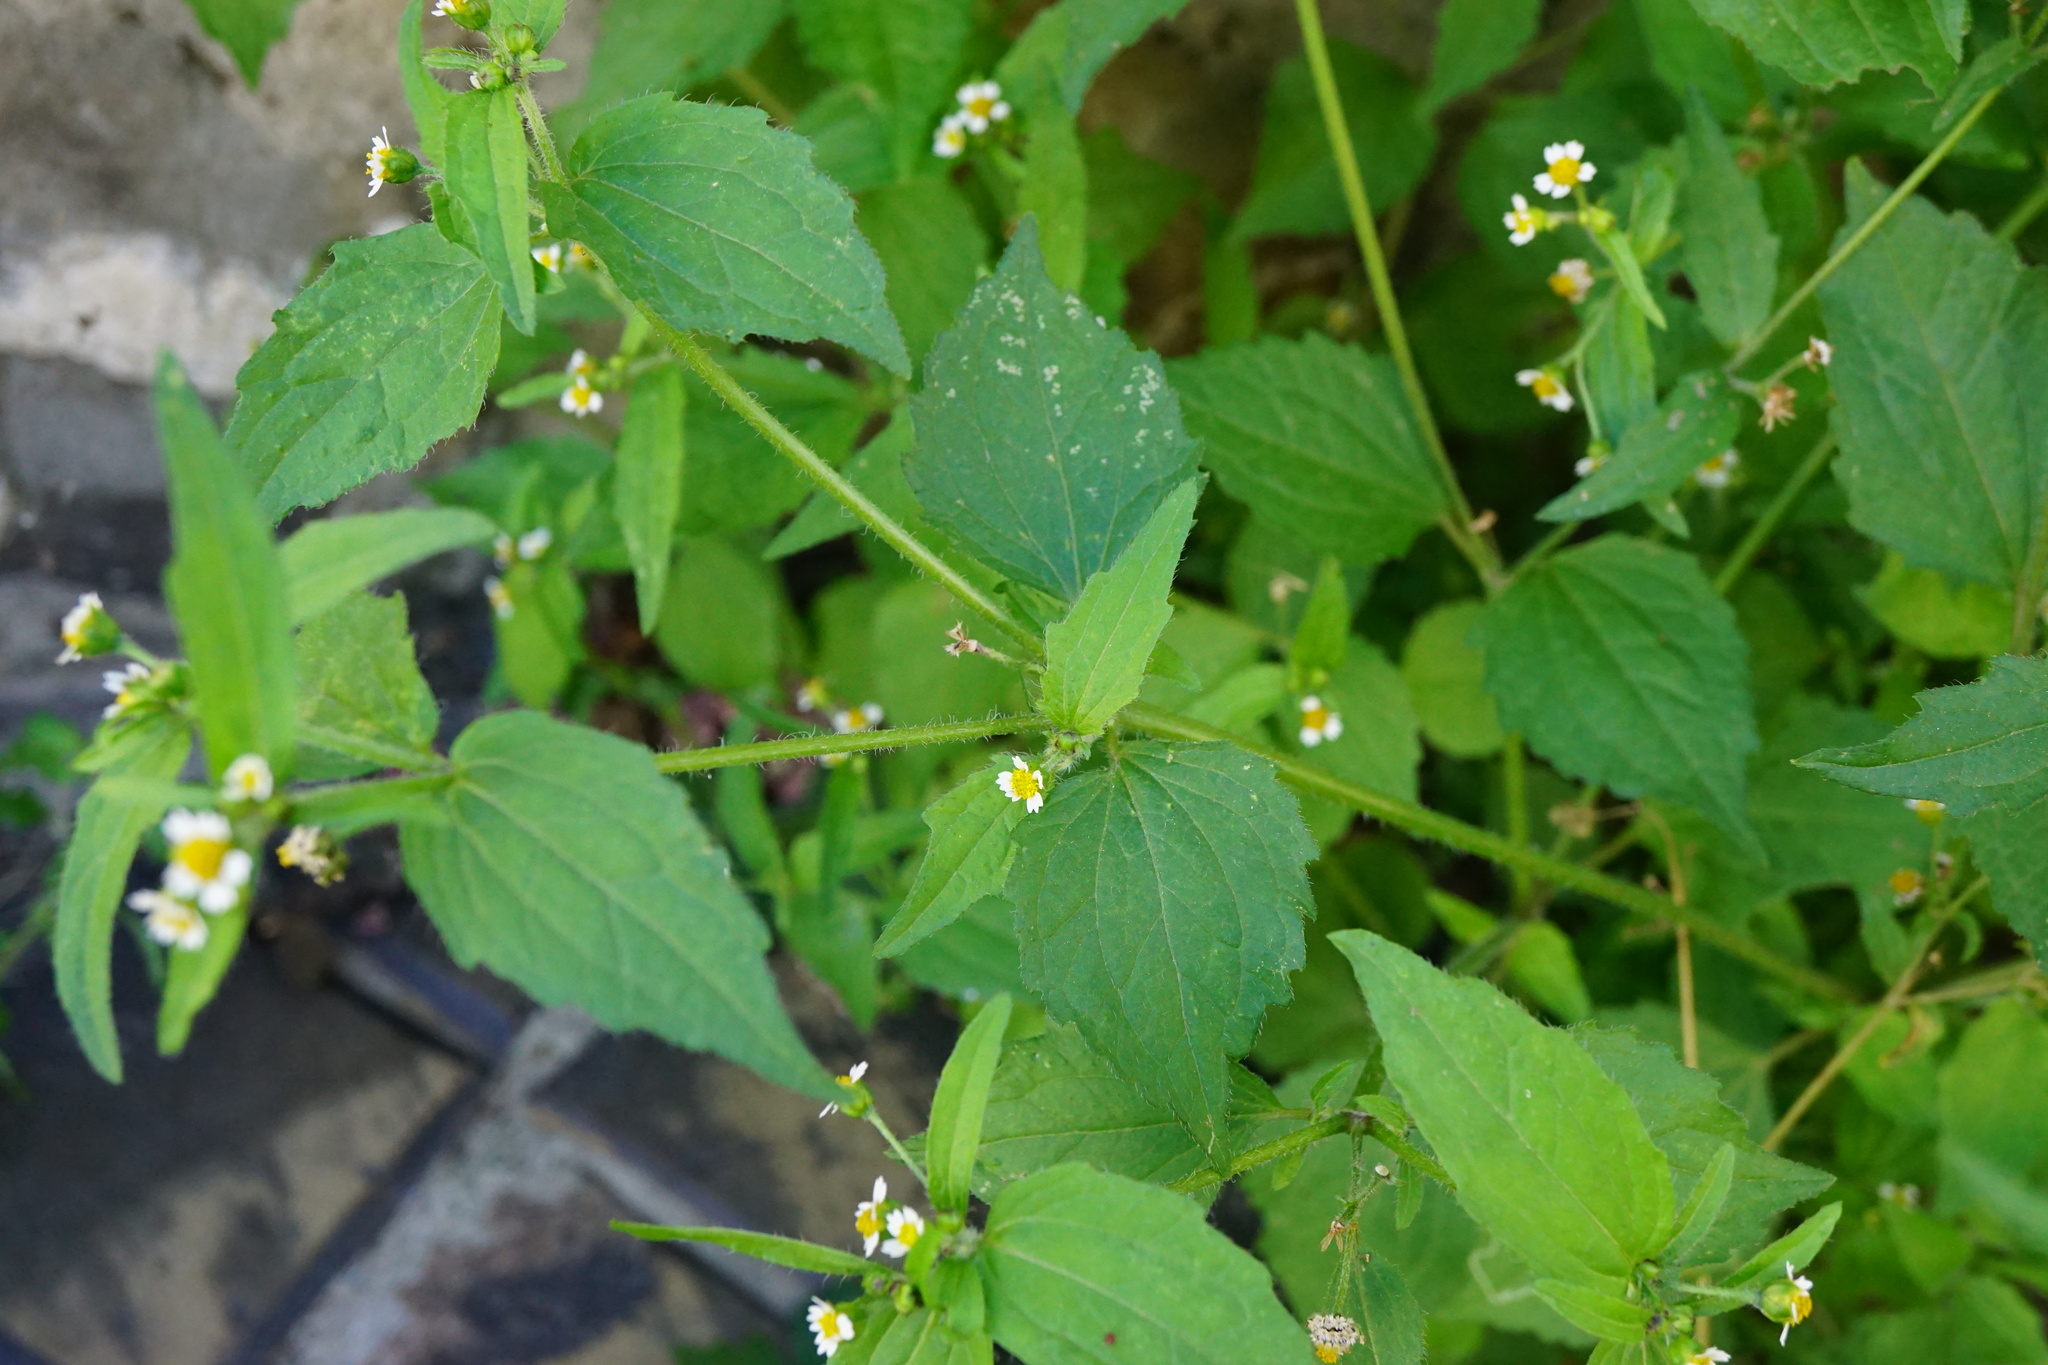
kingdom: Plantae
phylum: Tracheophyta
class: Magnoliopsida
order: Asterales
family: Asteraceae
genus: Galinsoga
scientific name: Galinsoga quadriradiata
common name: Shaggy soldier
